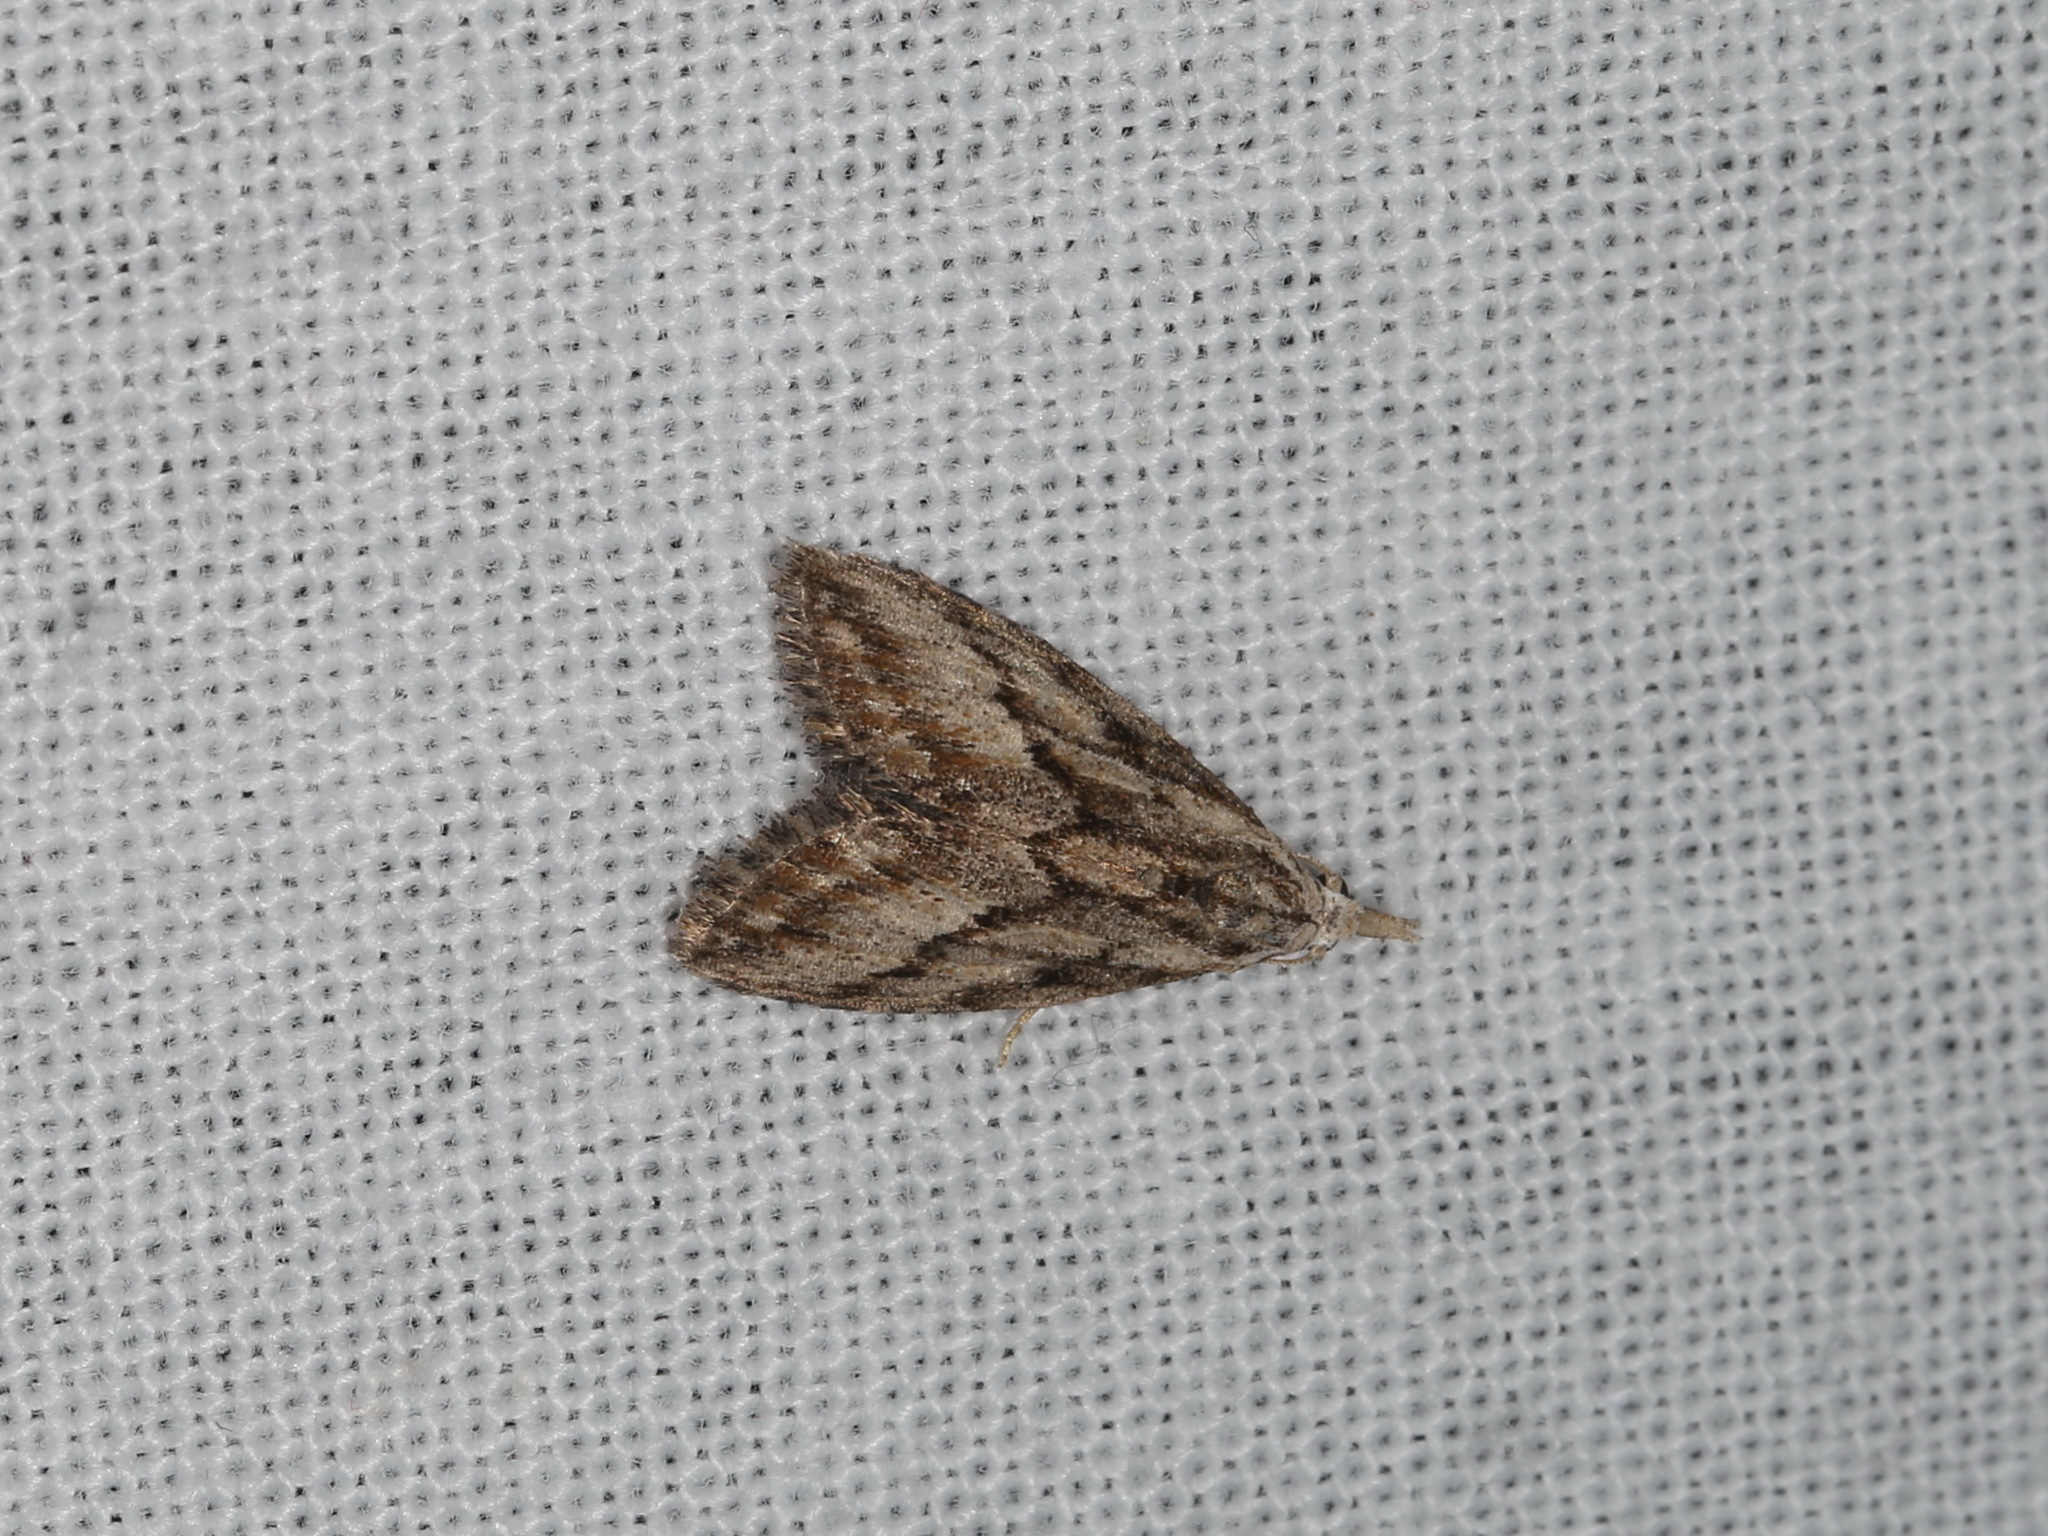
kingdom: Animalia
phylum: Arthropoda
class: Insecta
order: Lepidoptera
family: Nolidae
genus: Nola
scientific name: Nola phaeogramma
